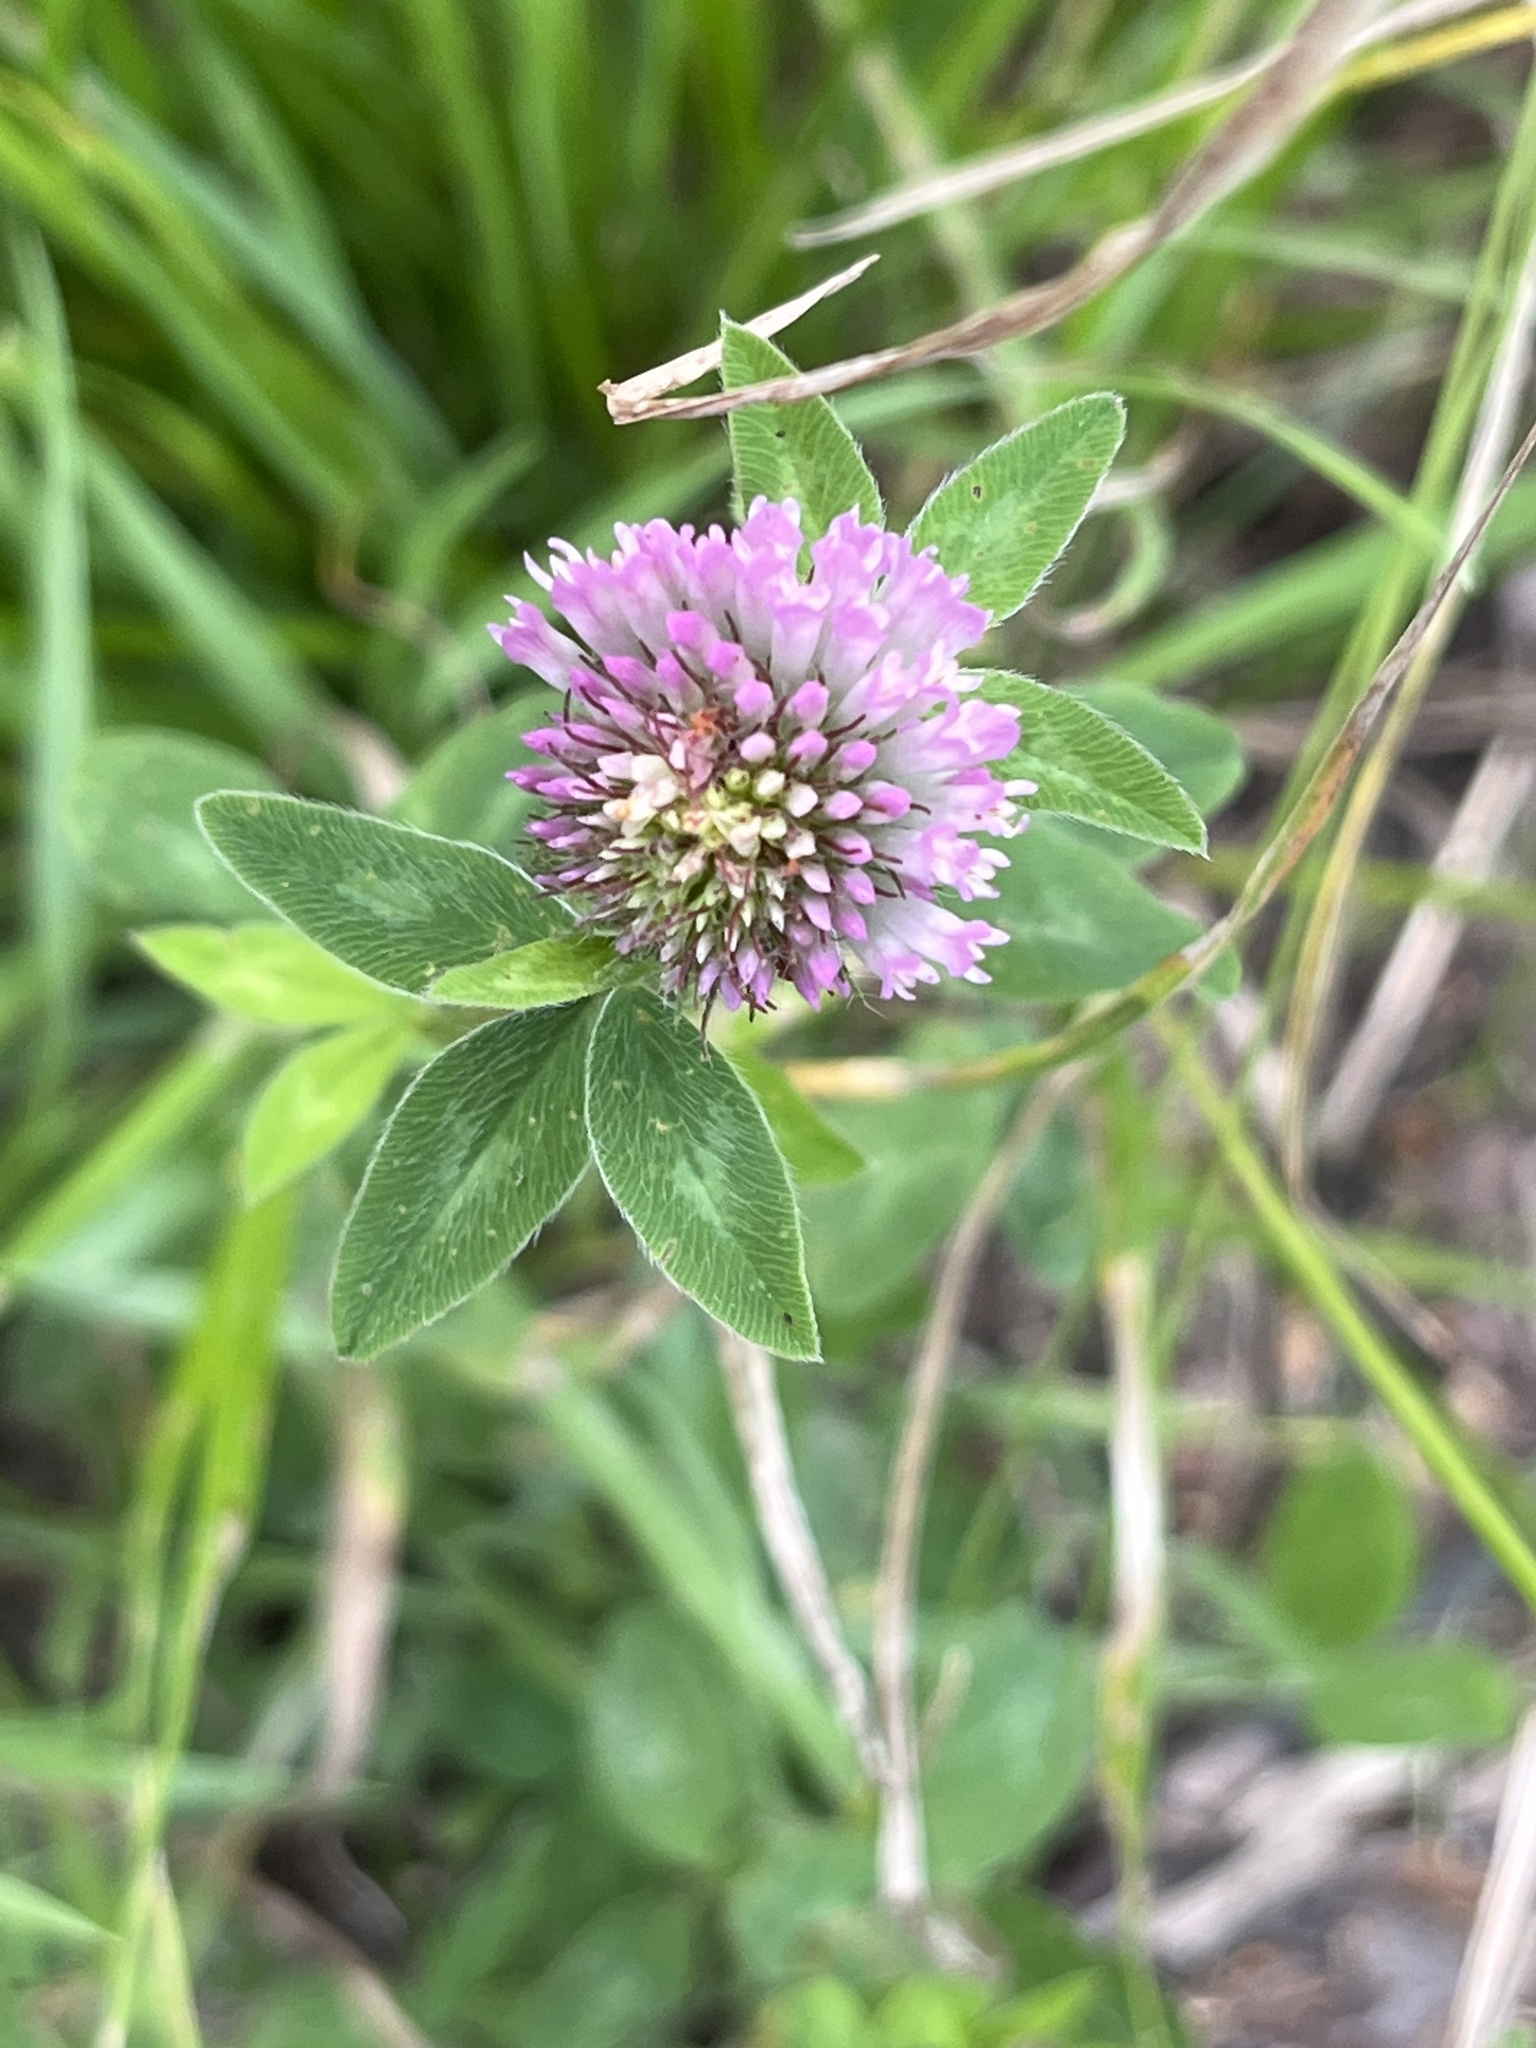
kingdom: Plantae
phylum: Tracheophyta
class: Magnoliopsida
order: Fabales
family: Fabaceae
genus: Trifolium
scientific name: Trifolium pratense
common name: Red clover
